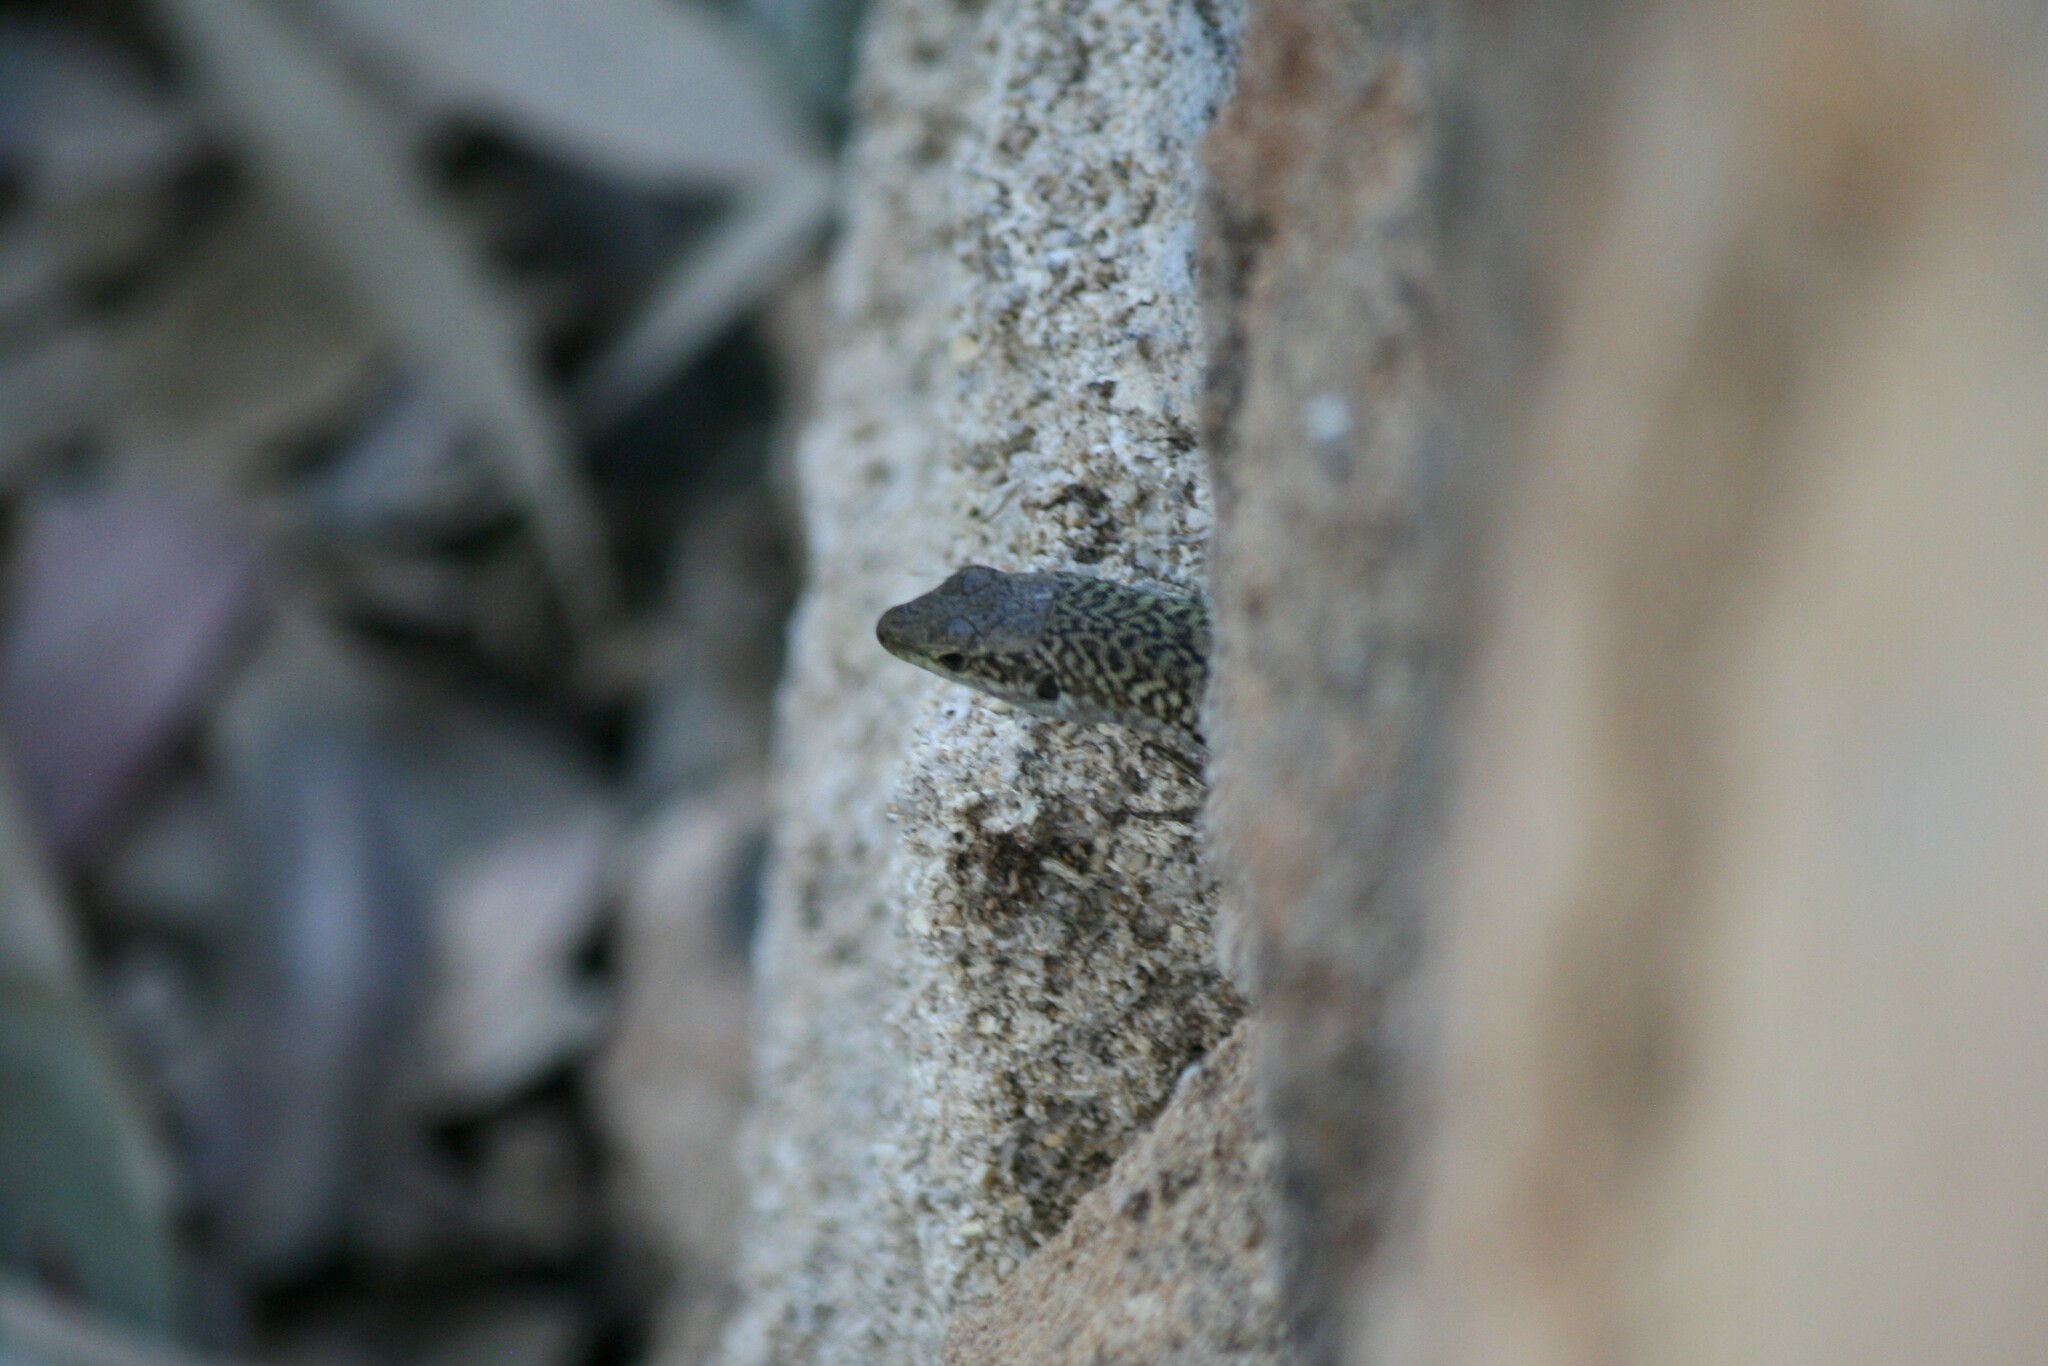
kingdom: Animalia
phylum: Chordata
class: Squamata
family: Lacertidae
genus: Podarcis
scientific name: Podarcis siculus
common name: Italian wall lizard
